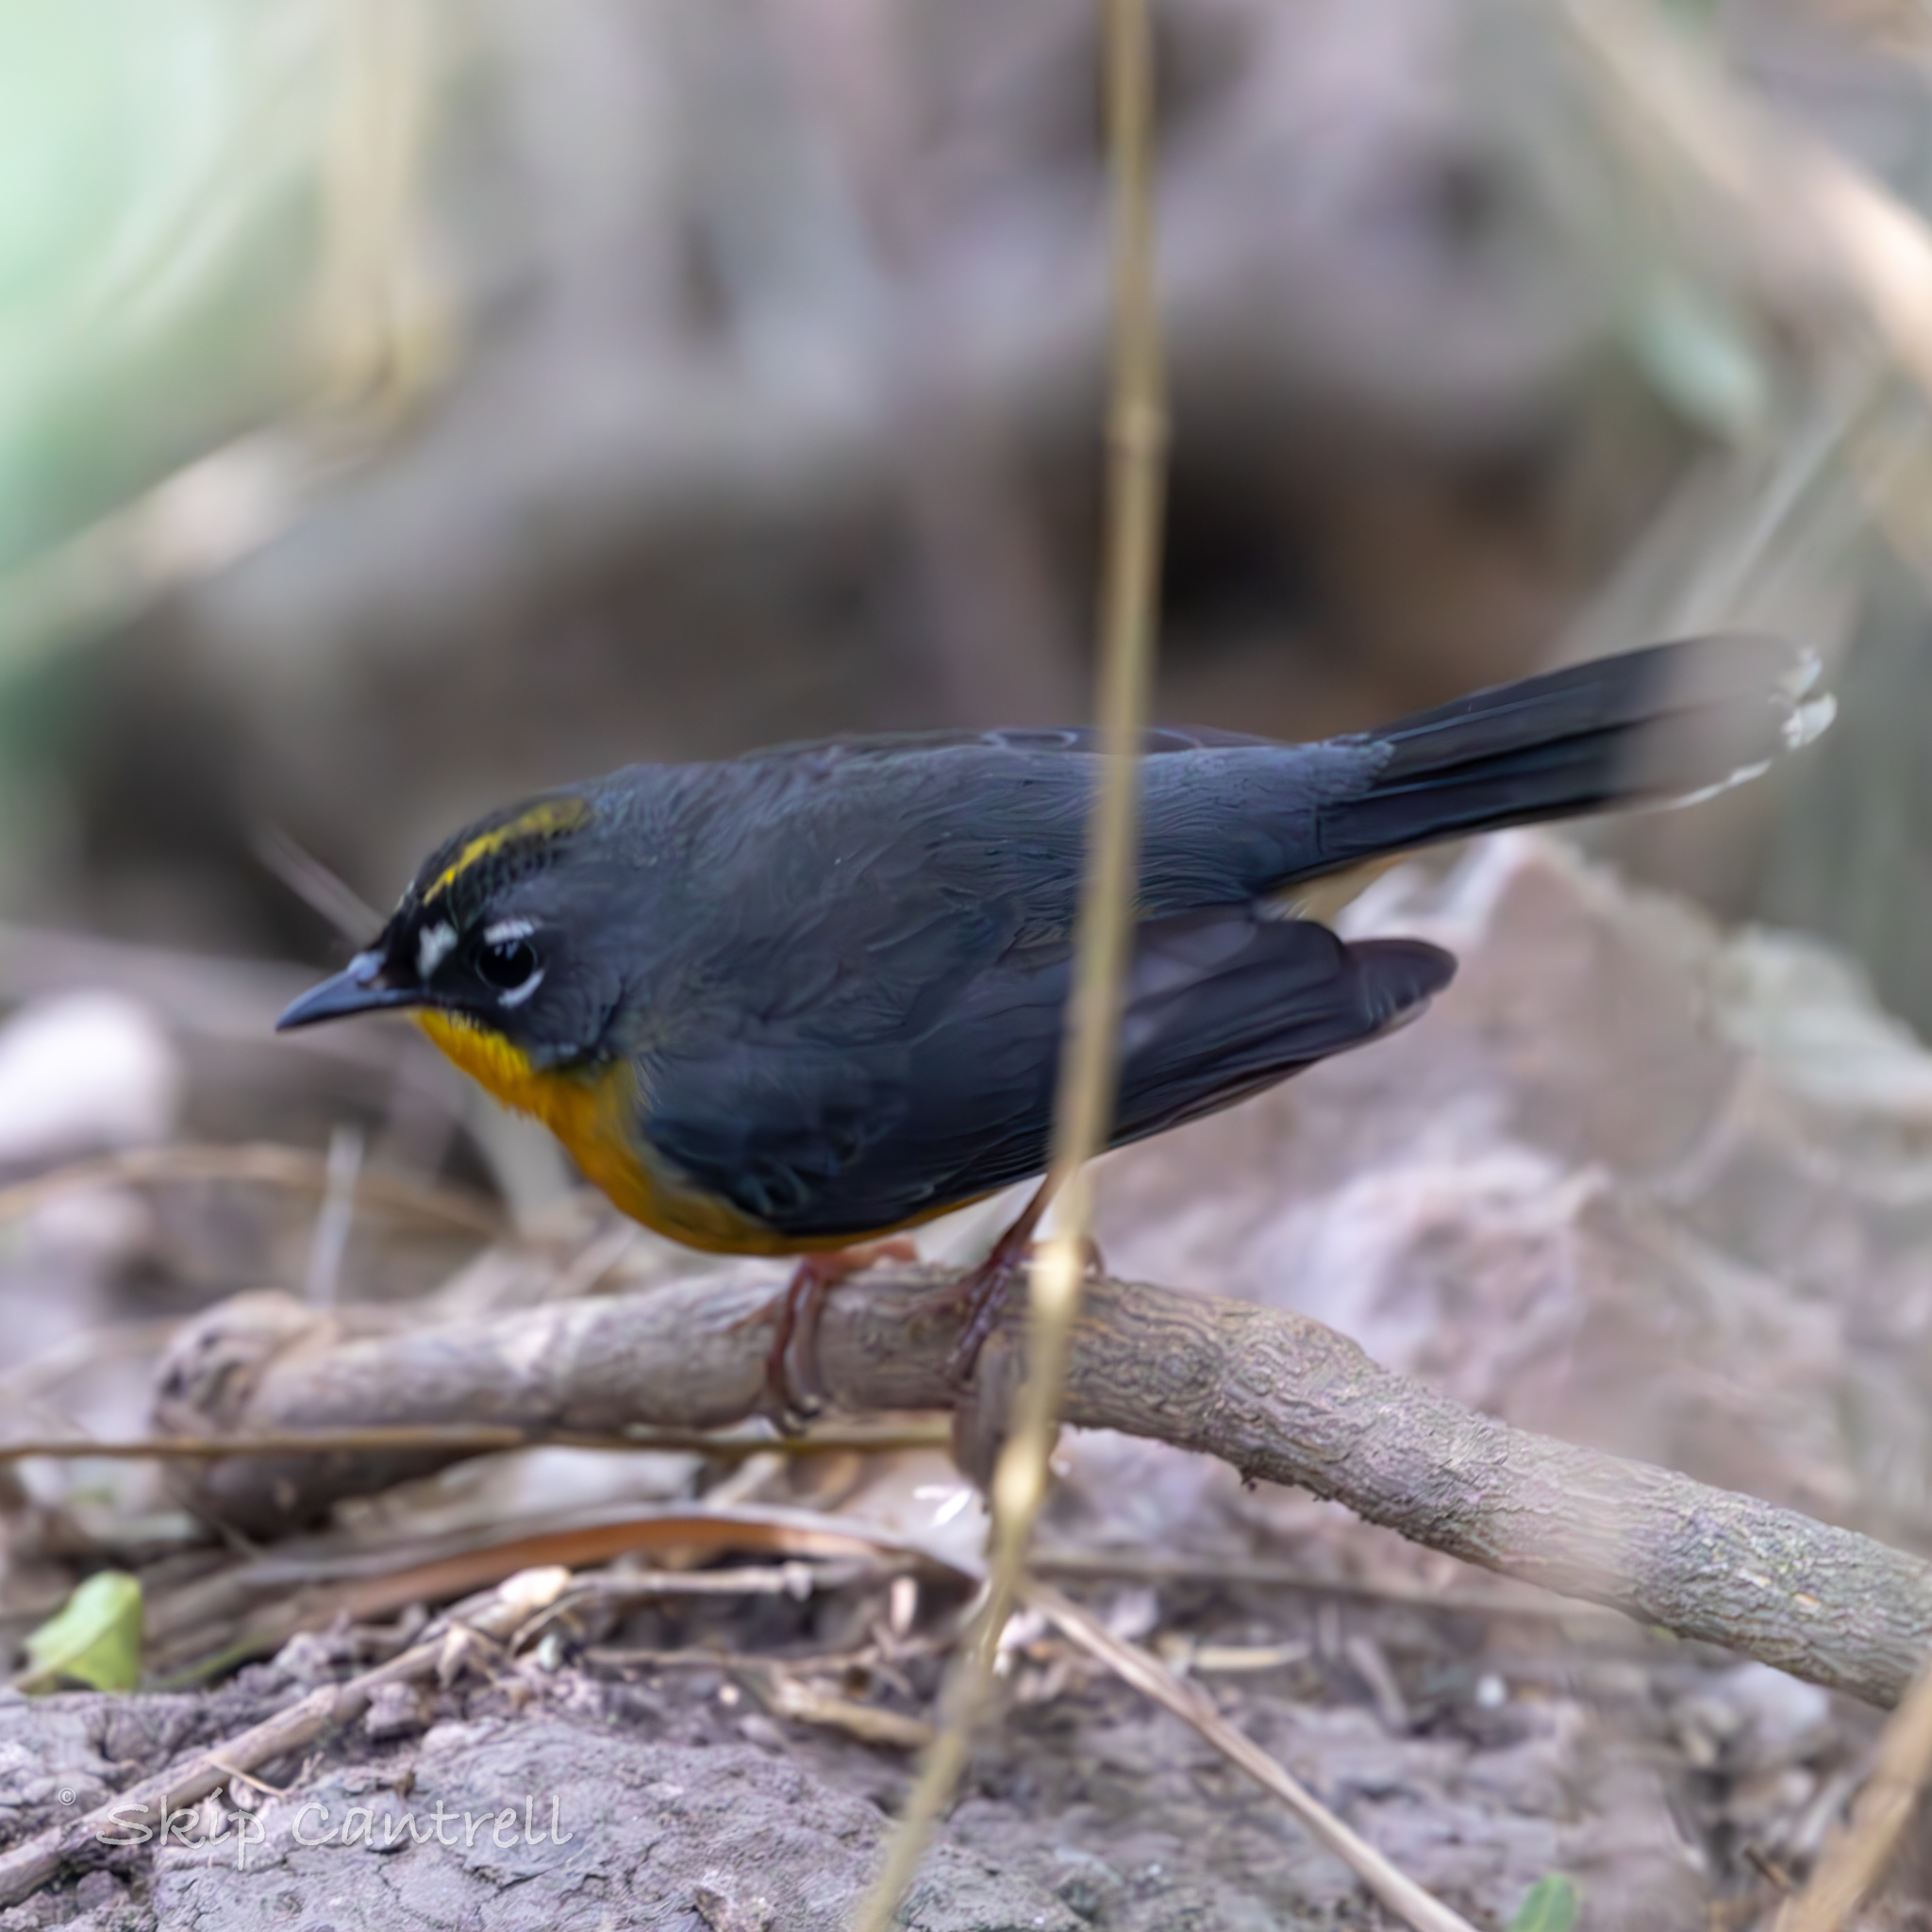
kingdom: Animalia
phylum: Chordata
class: Aves
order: Passeriformes
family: Parulidae
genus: Basileuterus
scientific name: Basileuterus lachrymosus
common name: Fan-tailed warbler
